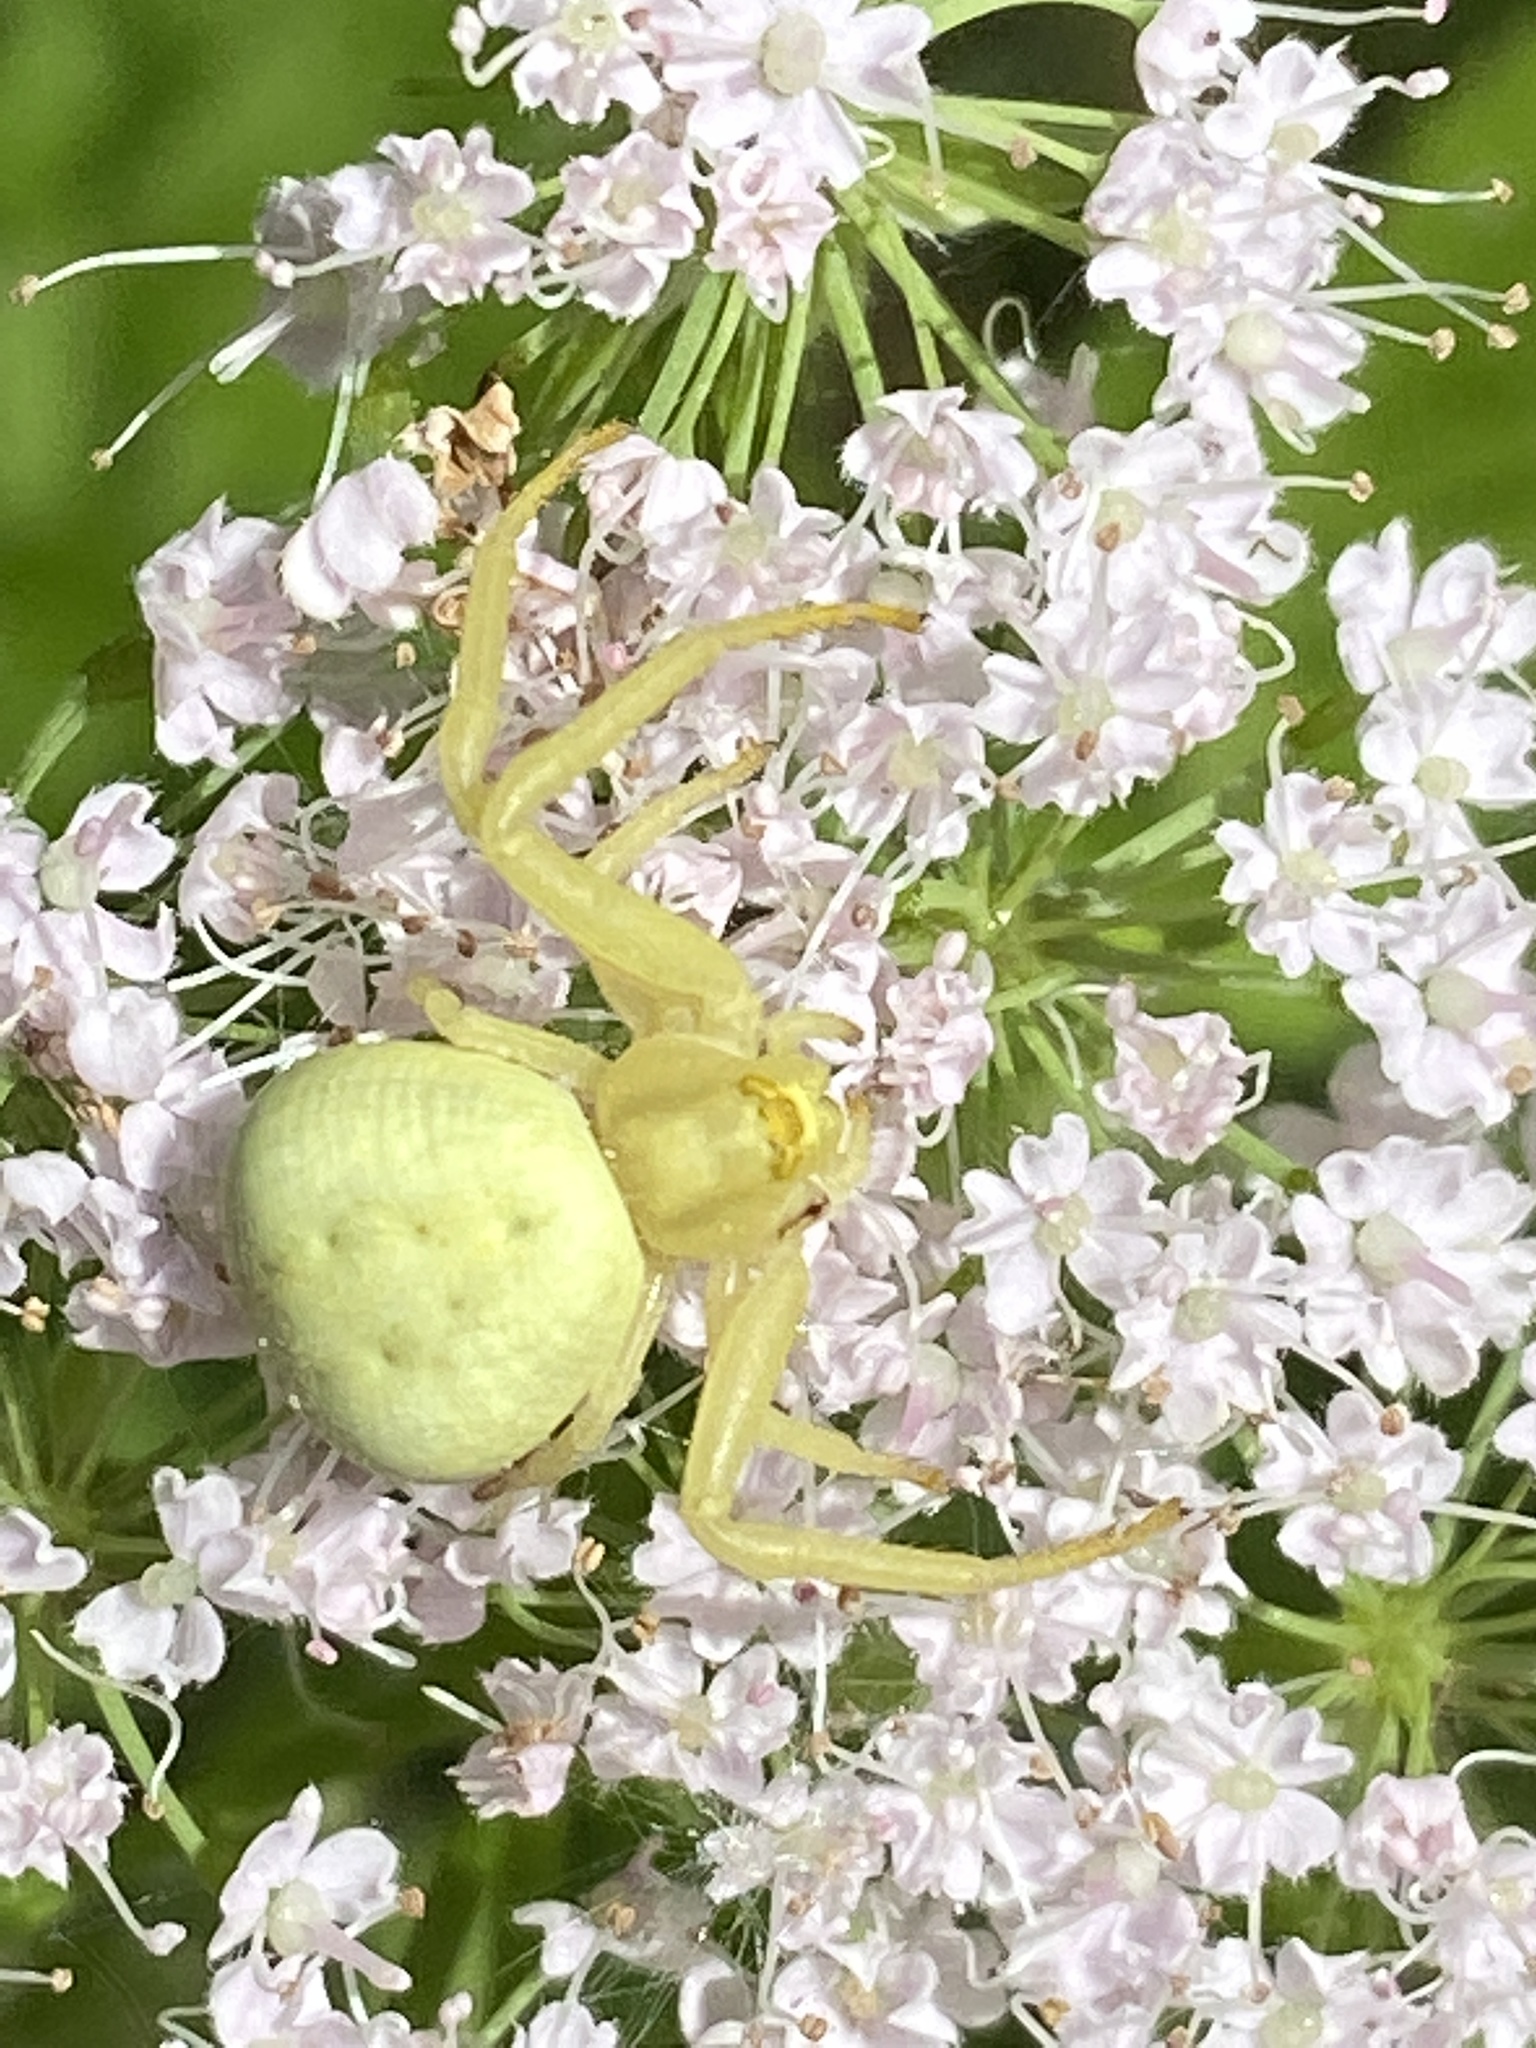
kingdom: Animalia
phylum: Arthropoda
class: Arachnida
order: Araneae
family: Thomisidae
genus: Misumena
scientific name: Misumena vatia
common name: Goldenrod crab spider
